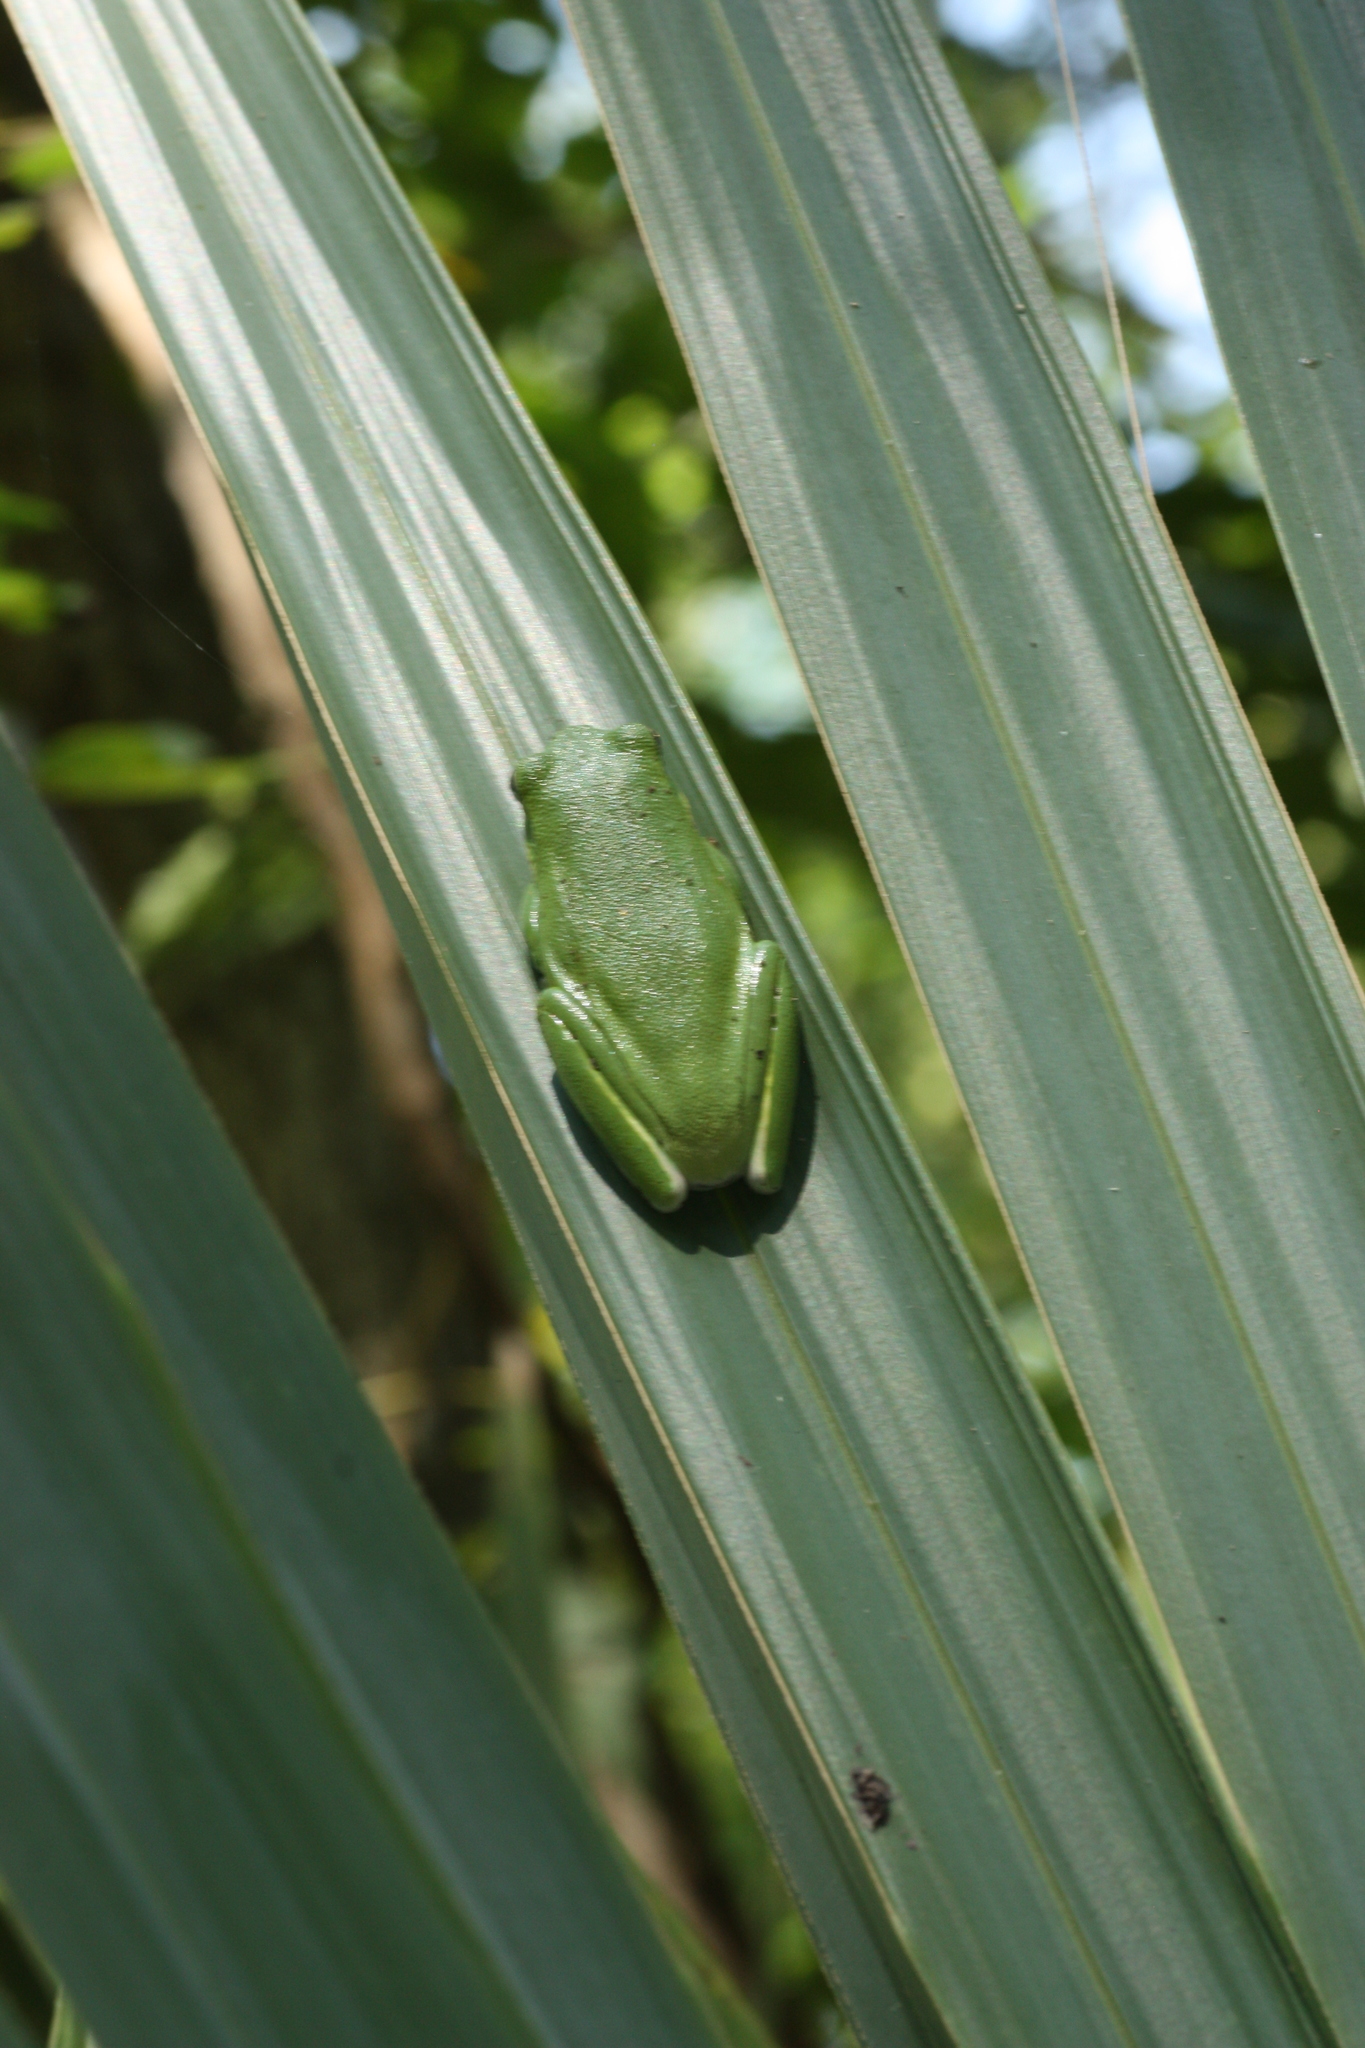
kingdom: Animalia
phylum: Chordata
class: Amphibia
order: Anura
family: Hylidae
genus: Dryophytes
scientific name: Dryophytes cinereus
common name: Green treefrog
